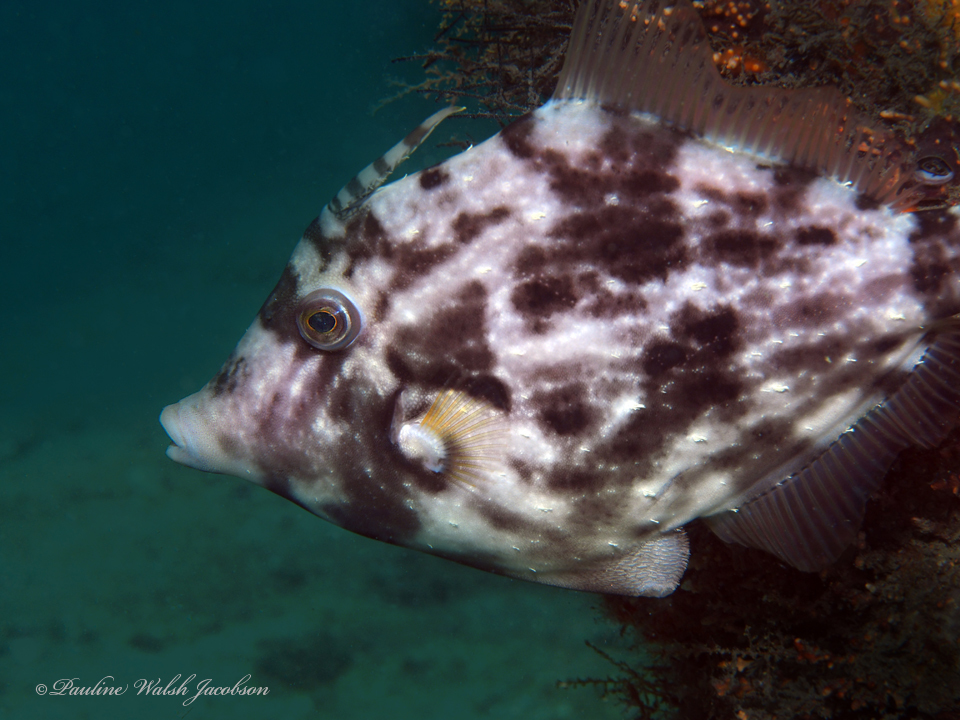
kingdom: Animalia
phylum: Chordata
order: Tetraodontiformes
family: Monacanthidae
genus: Stephanolepis
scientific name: Stephanolepis hispidus
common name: Planehead filefish
